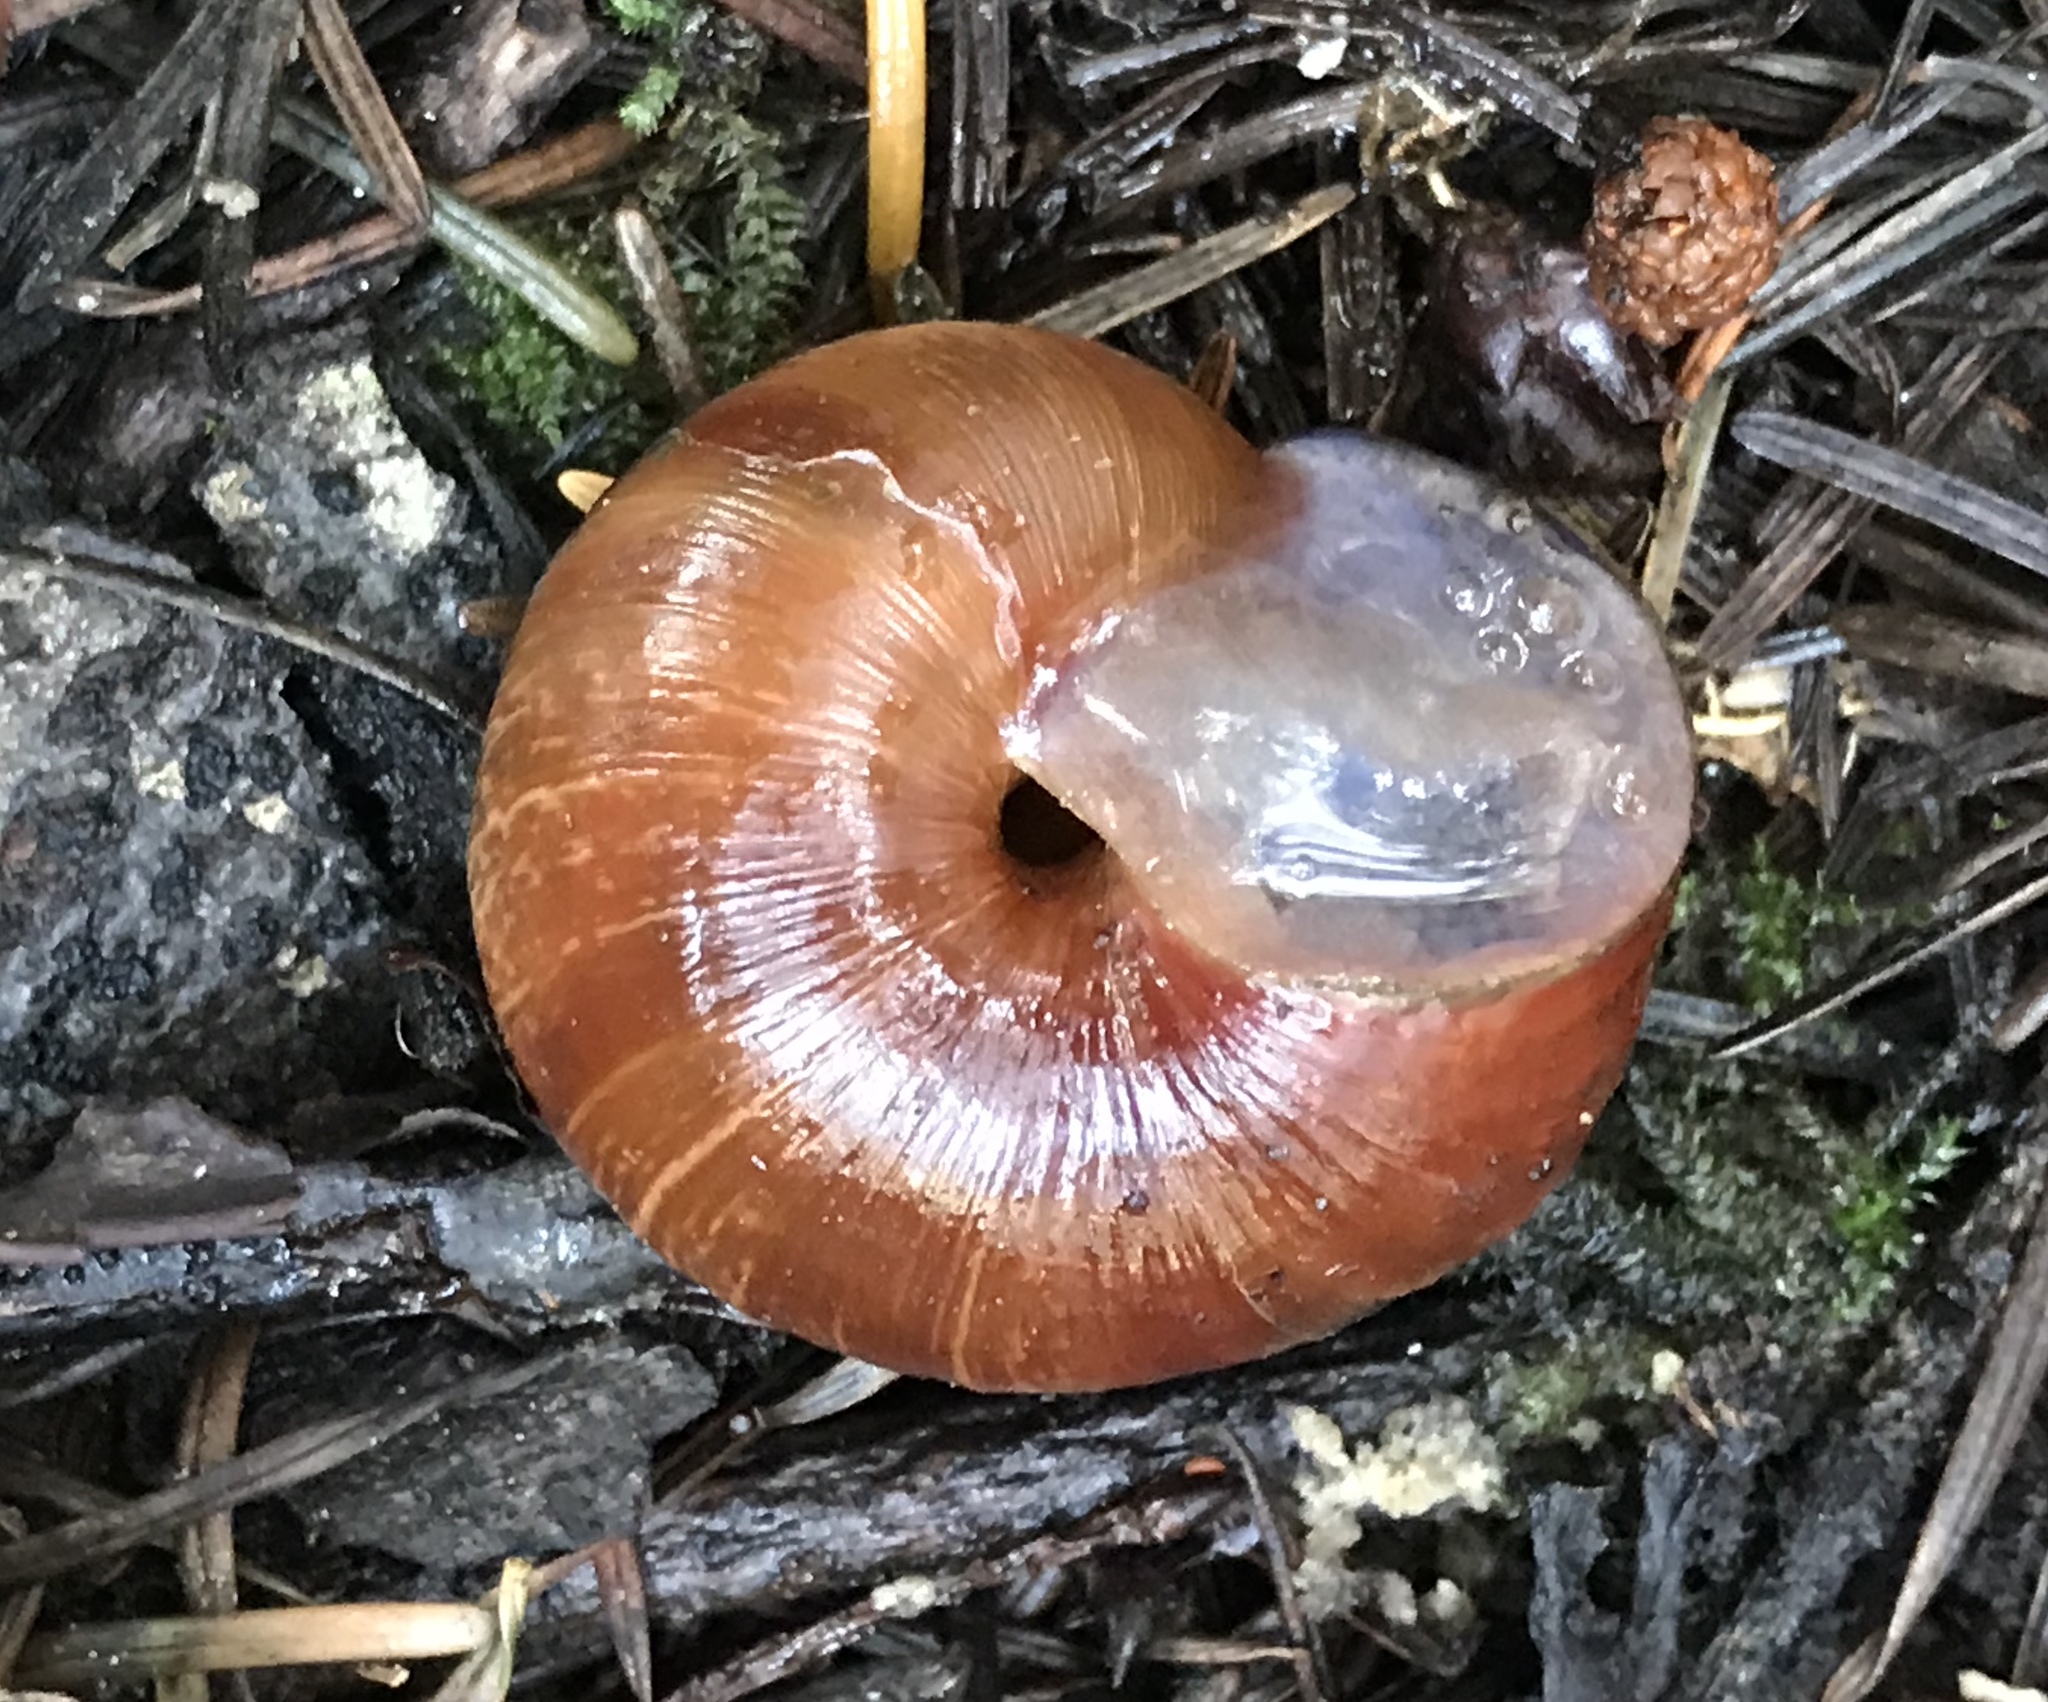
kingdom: Animalia
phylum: Mollusca
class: Gastropoda
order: Stylommatophora
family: Xanthonychidae
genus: Helminthoglypta
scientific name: Helminthoglypta arrosa
